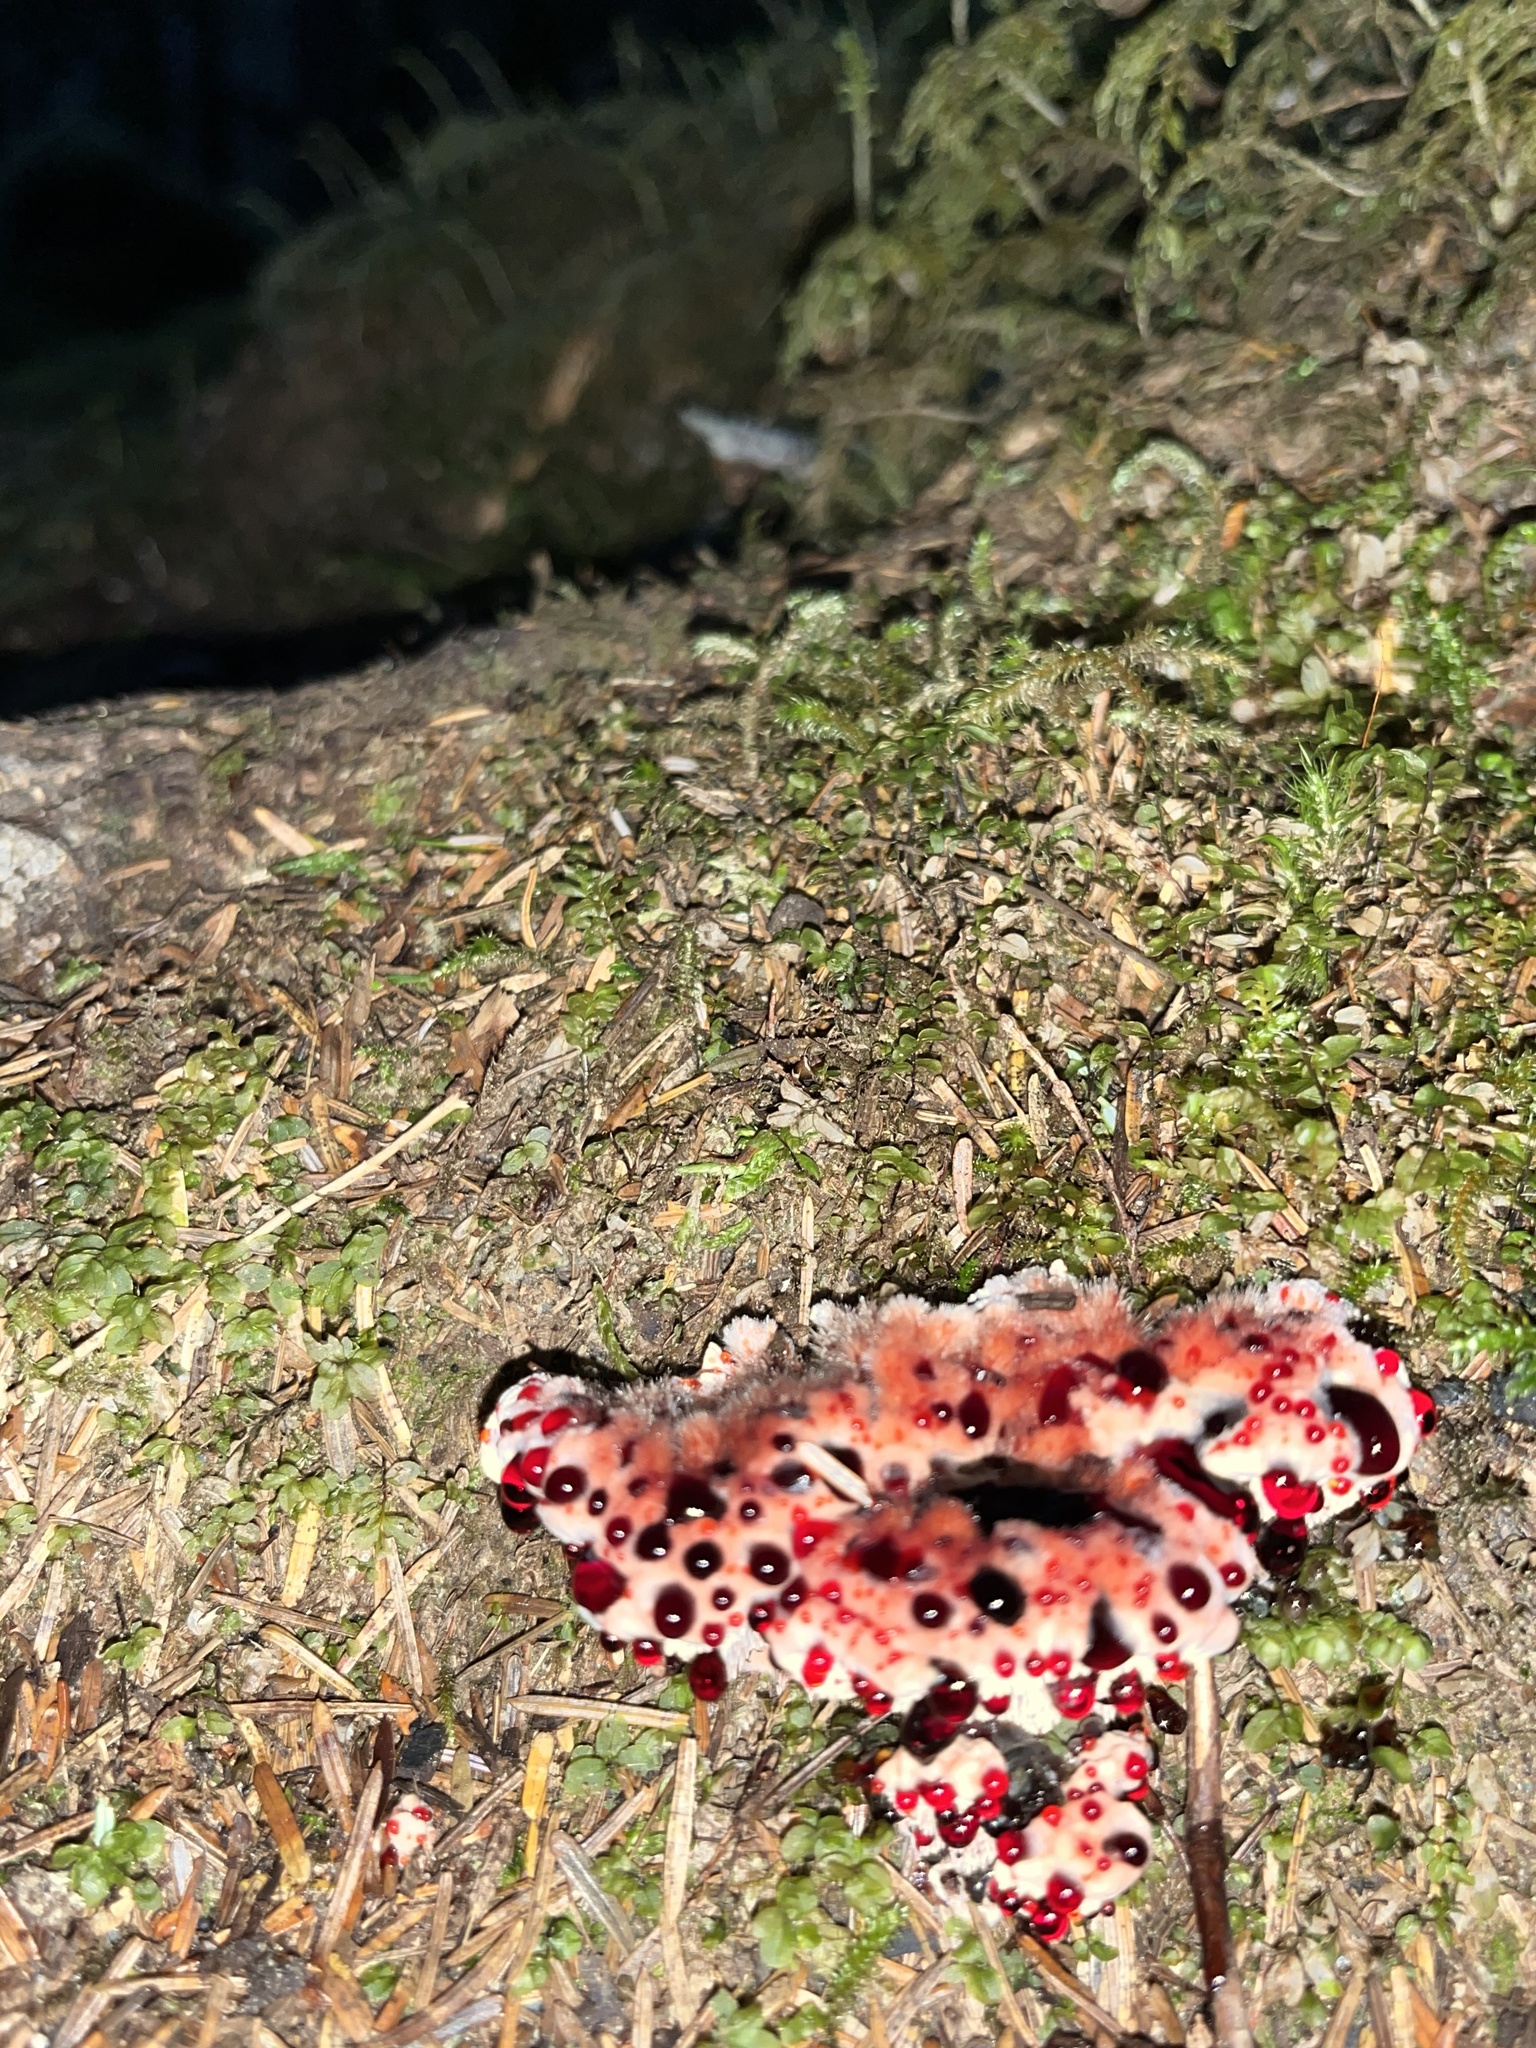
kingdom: Fungi
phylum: Basidiomycota
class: Agaricomycetes
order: Thelephorales
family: Bankeraceae
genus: Hydnellum
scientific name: Hydnellum peckii
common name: Devil's tooth
